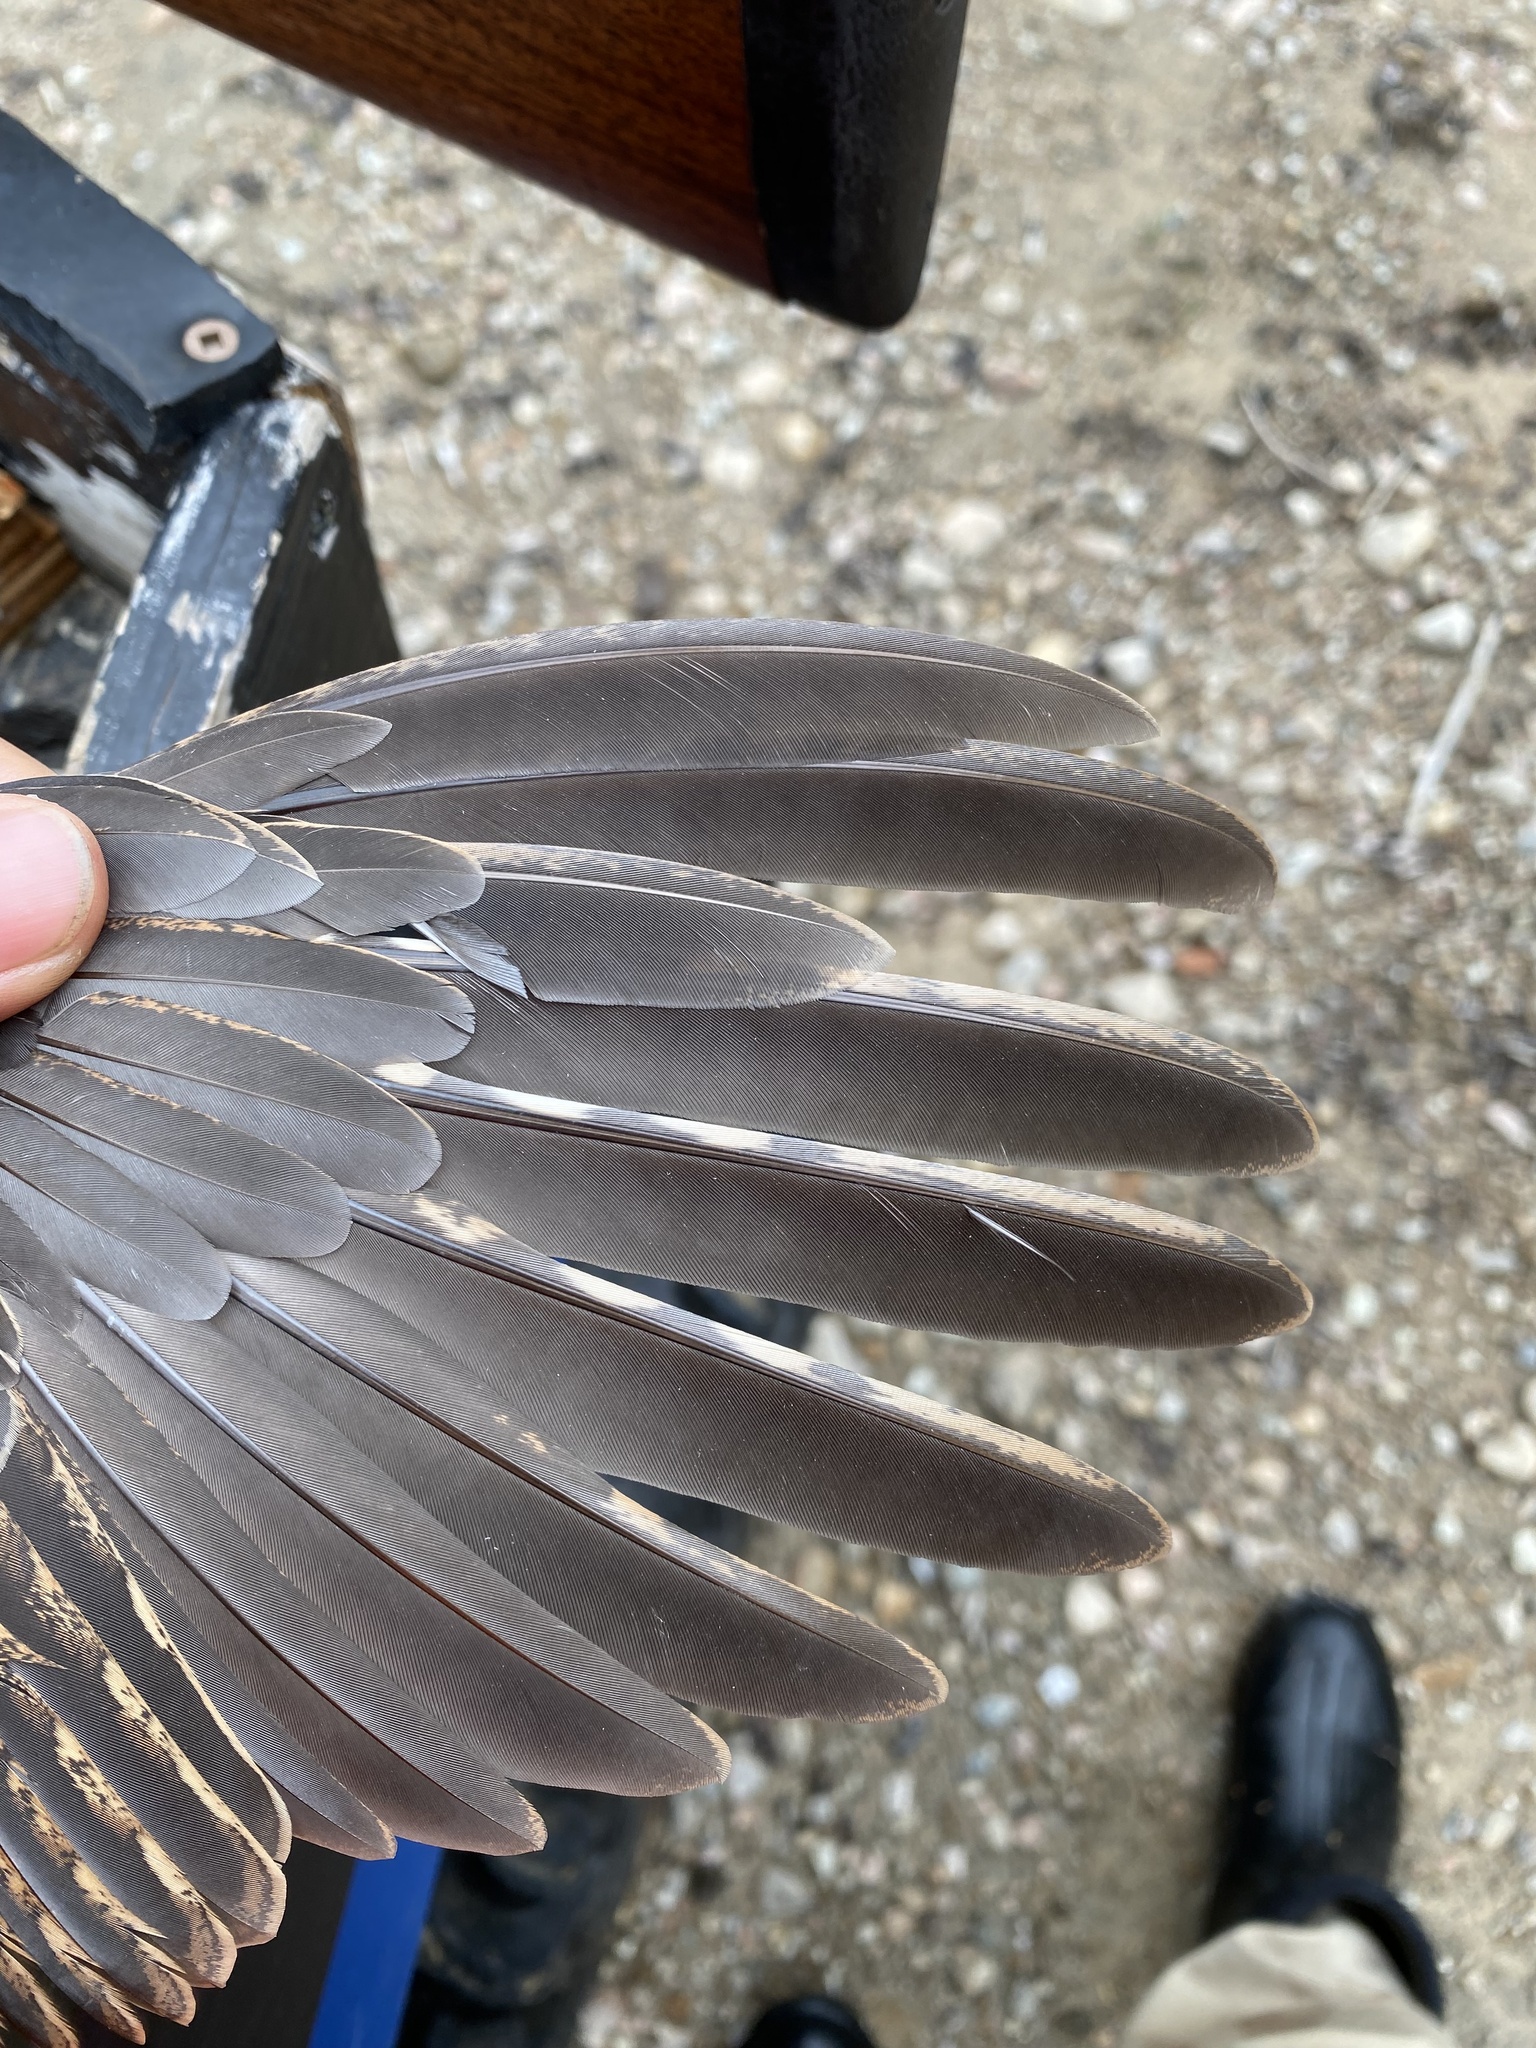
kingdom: Animalia
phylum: Chordata
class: Aves
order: Galliformes
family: Phasianidae
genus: Bonasa
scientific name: Bonasa umbellus
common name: Ruffed grouse
